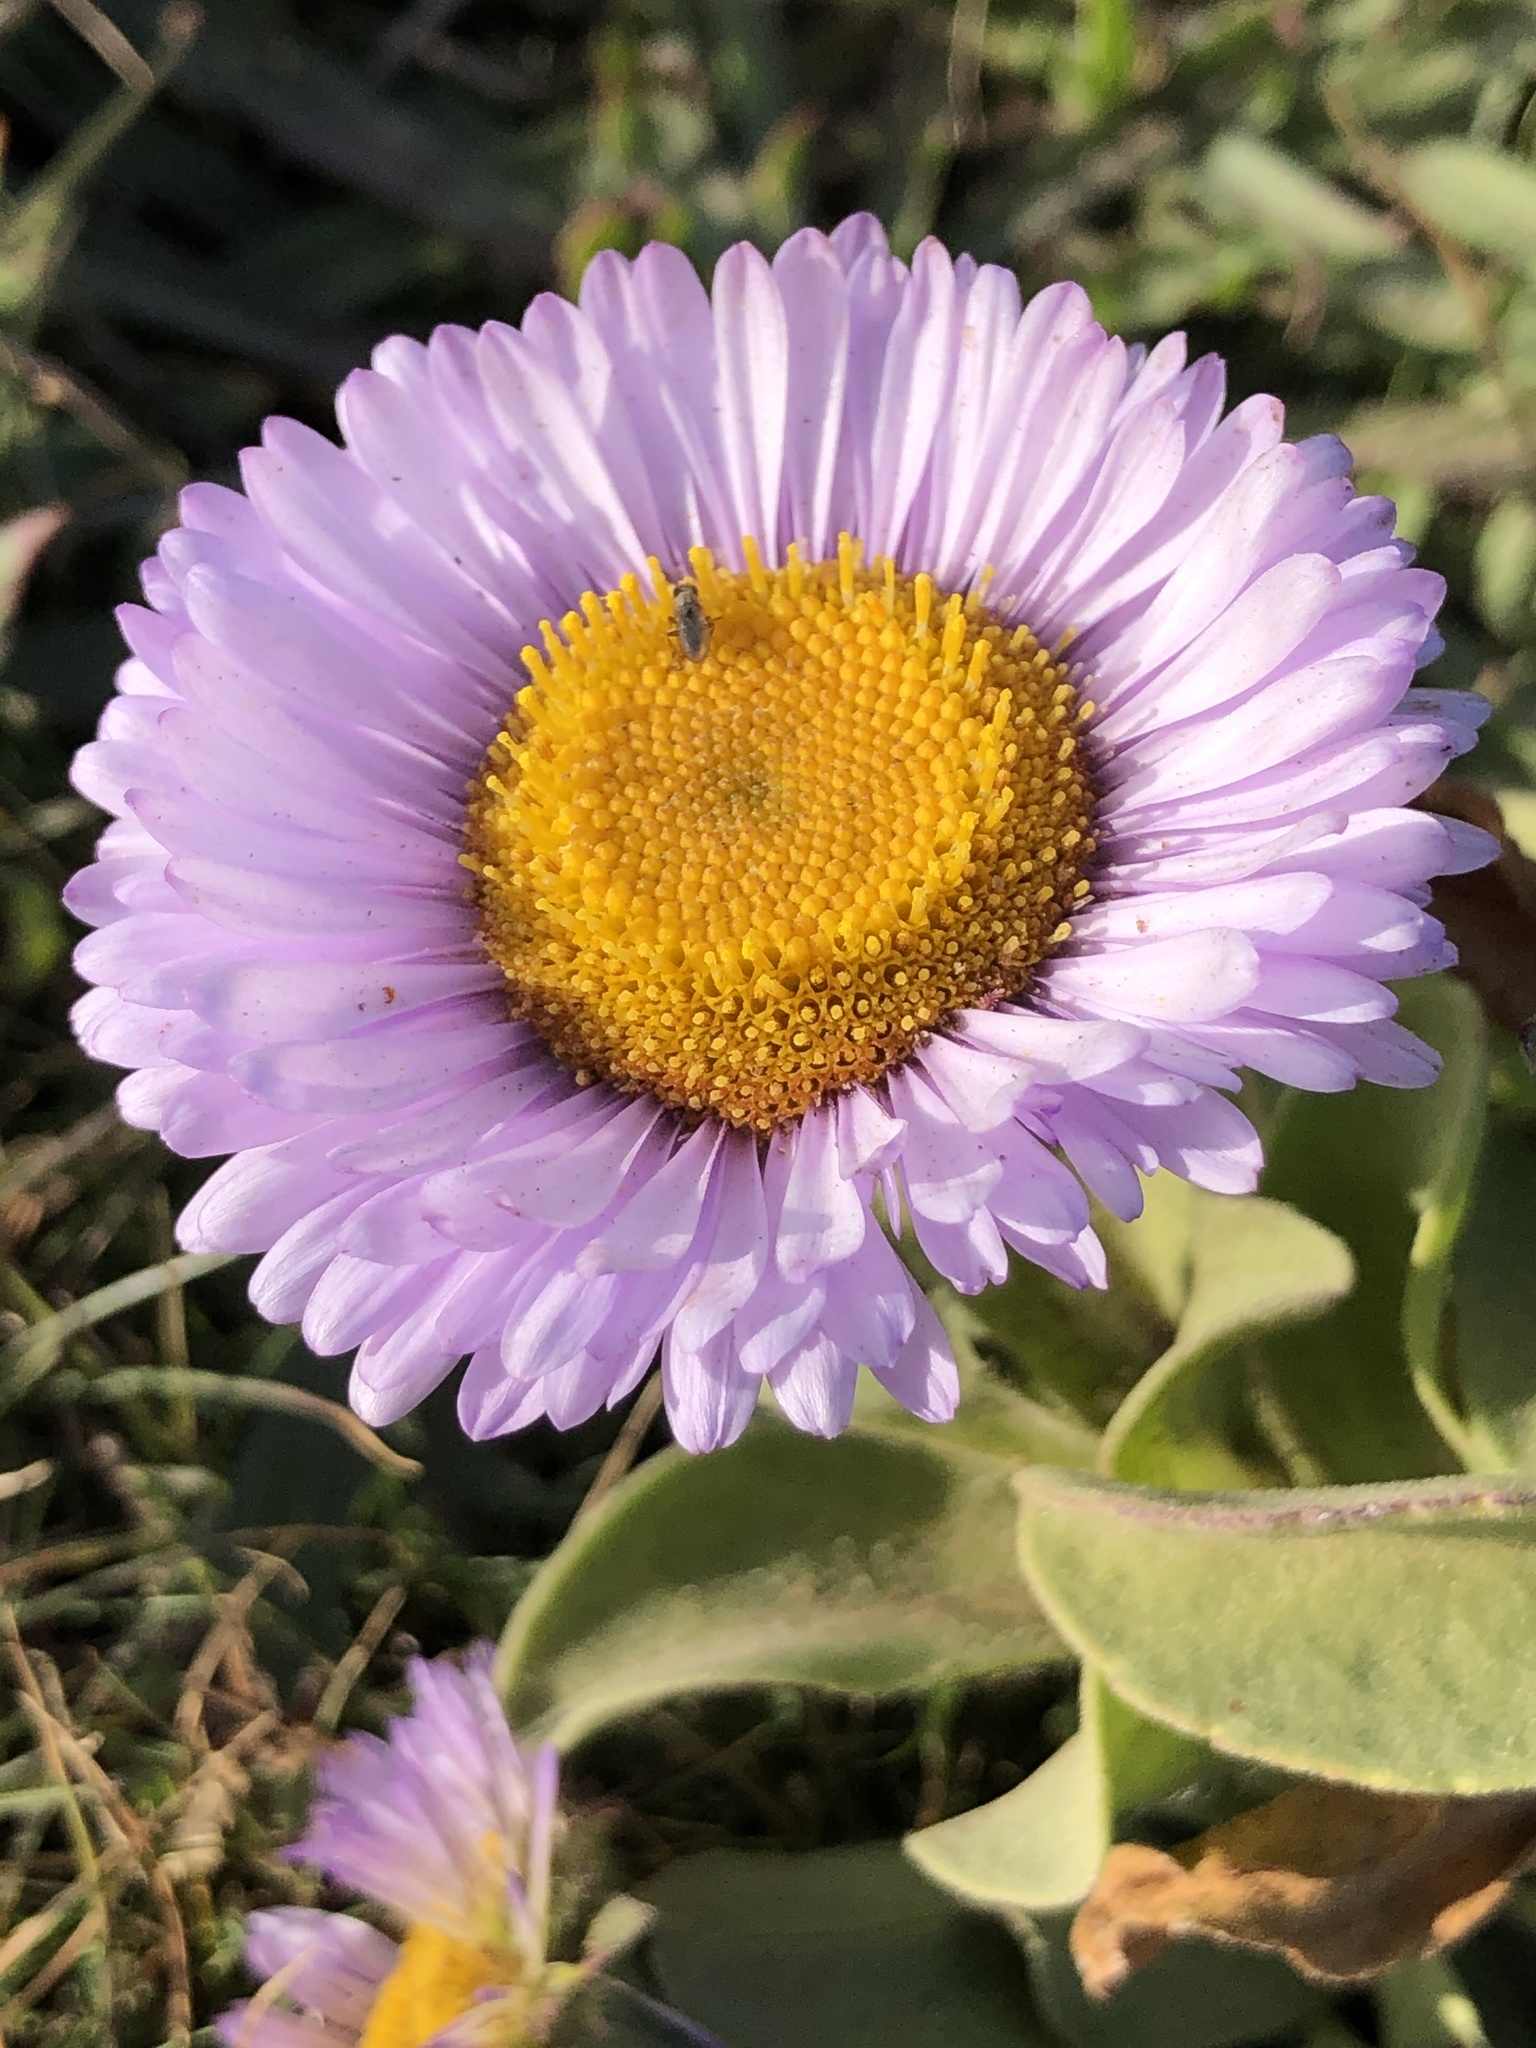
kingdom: Plantae
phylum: Tracheophyta
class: Magnoliopsida
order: Asterales
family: Asteraceae
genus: Erigeron
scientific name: Erigeron glaucus
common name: Seaside daisy
